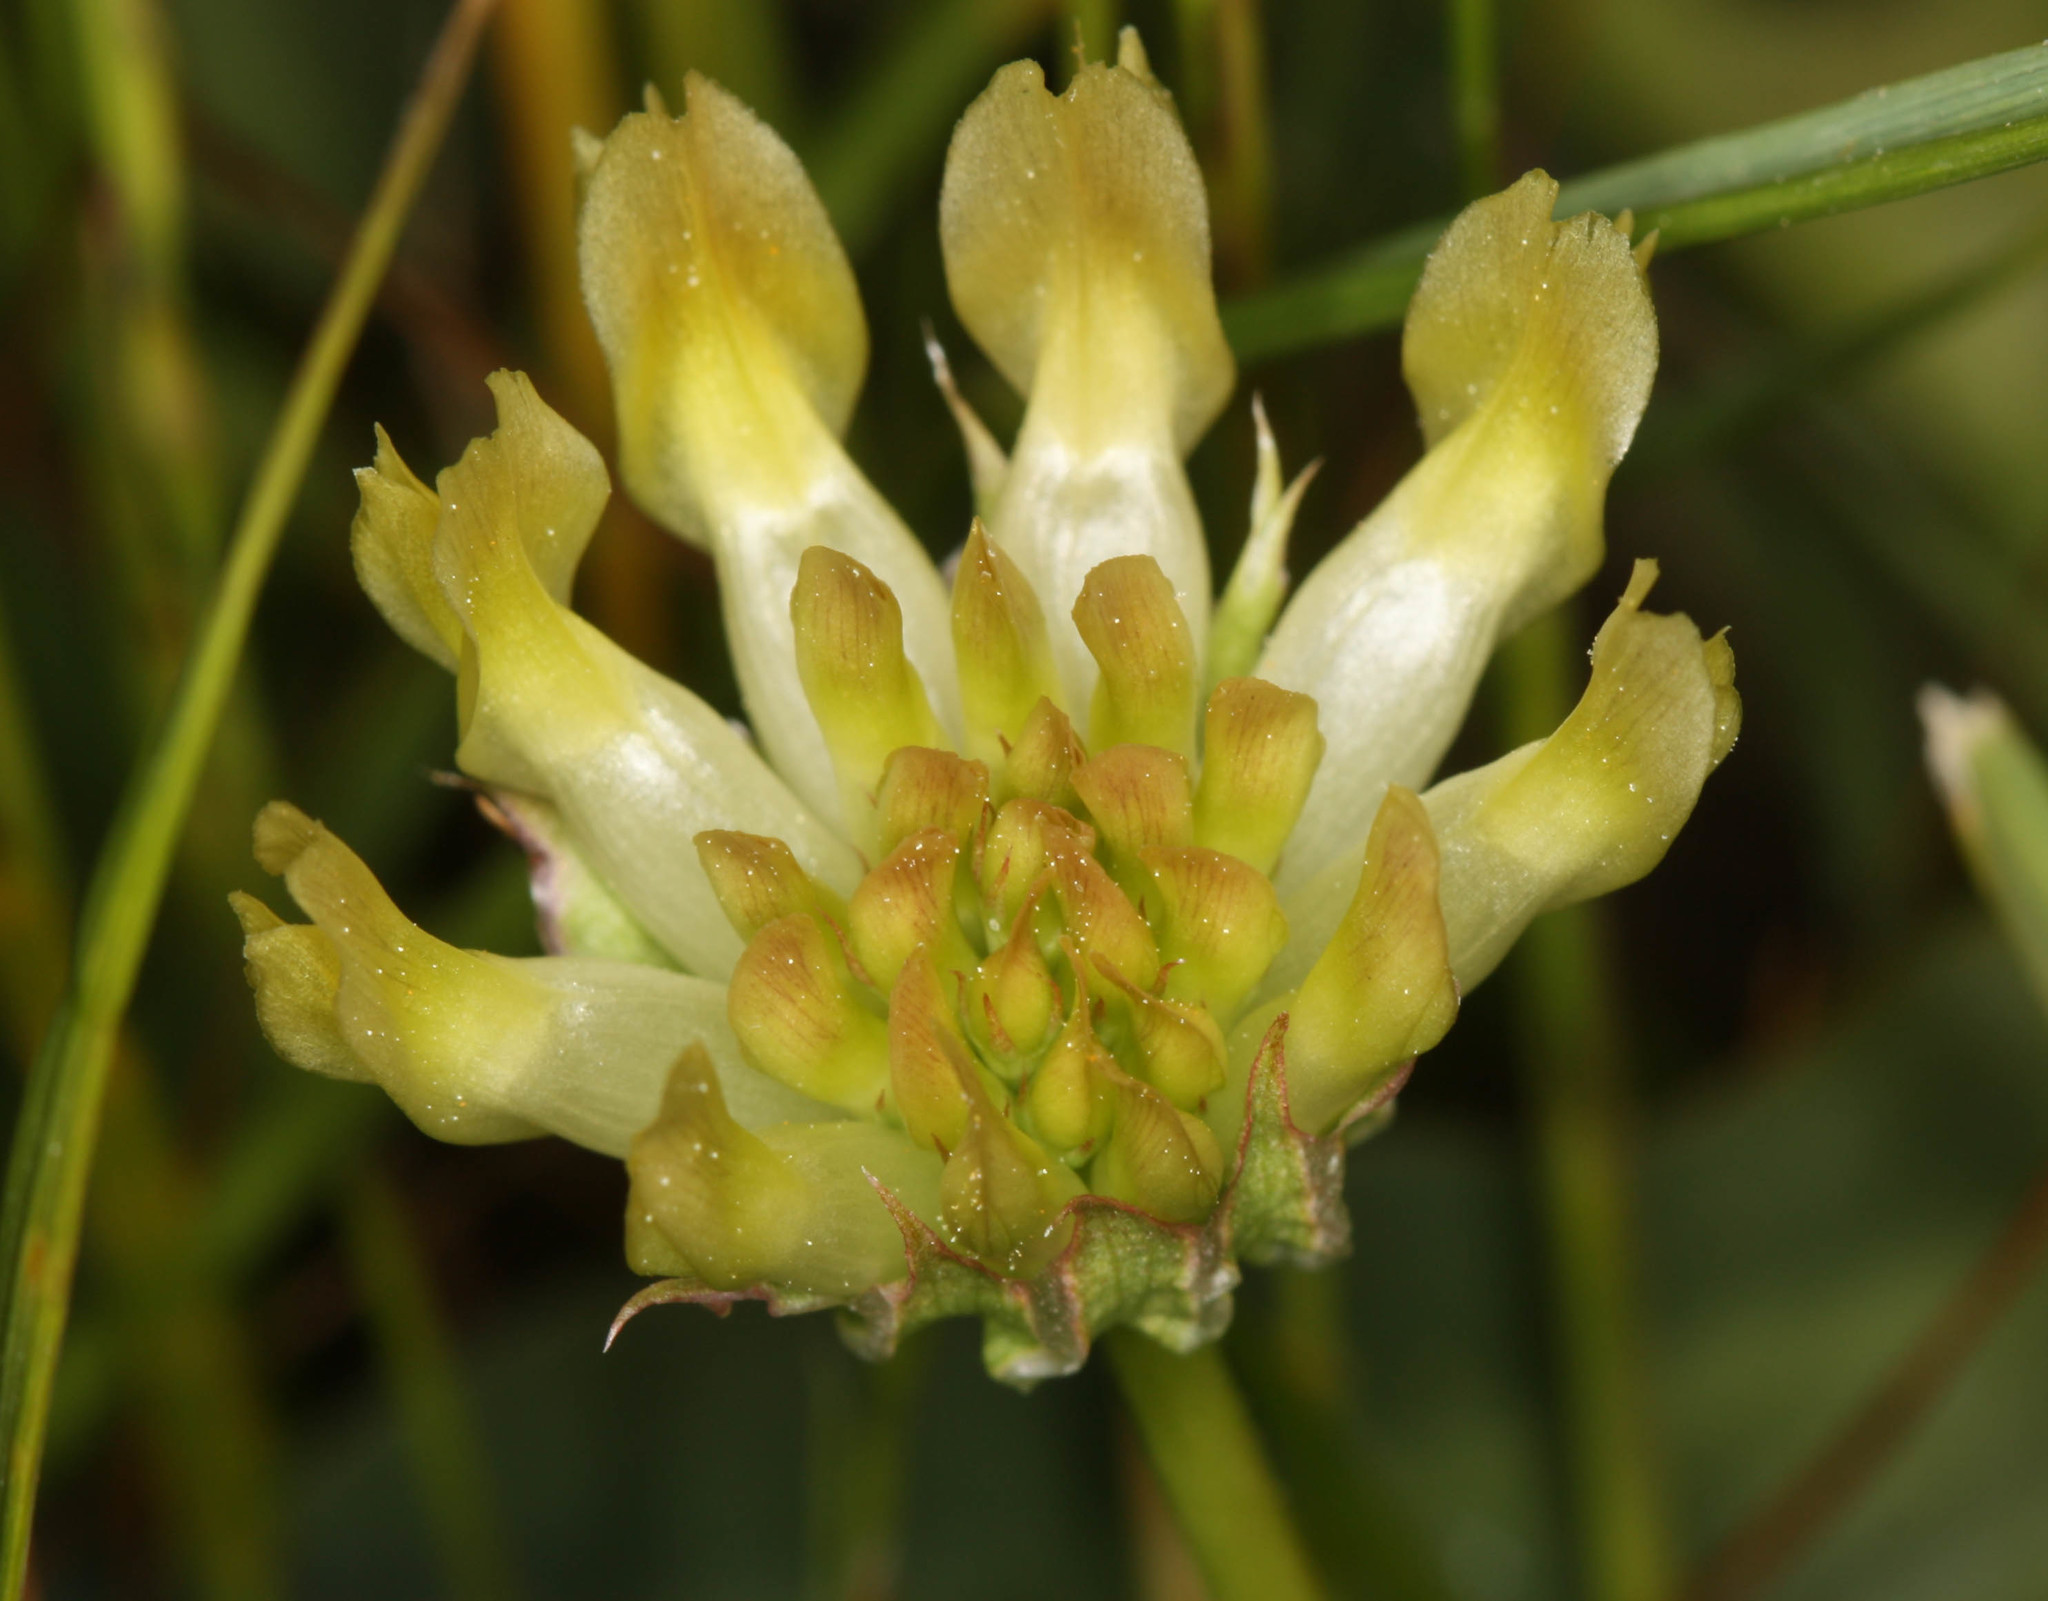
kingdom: Plantae
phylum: Tracheophyta
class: Magnoliopsida
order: Fabales
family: Fabaceae
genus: Trifolium
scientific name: Trifolium fucatum
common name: Puff clover
